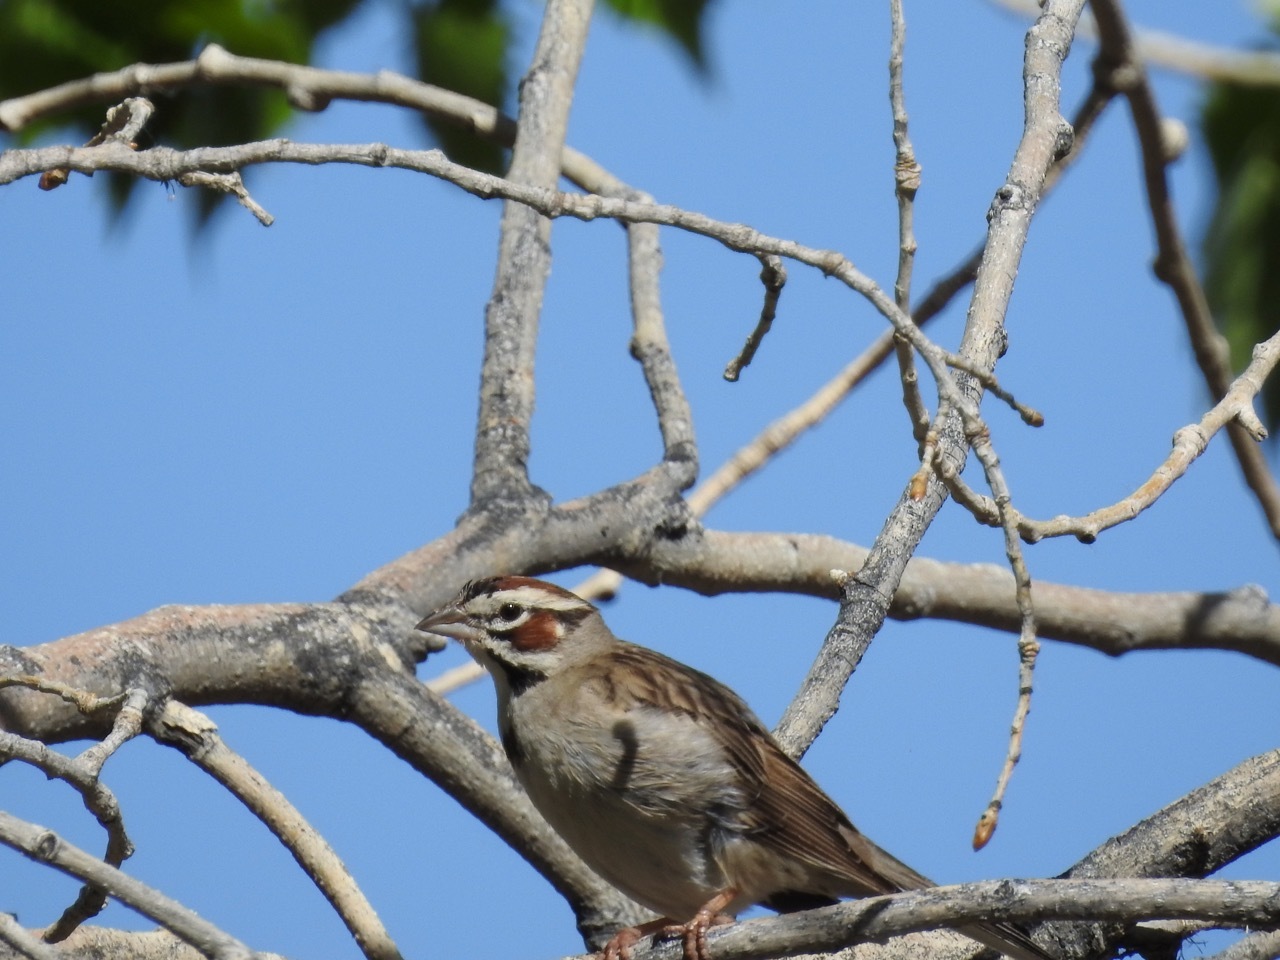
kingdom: Animalia
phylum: Chordata
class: Aves
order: Passeriformes
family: Passerellidae
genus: Chondestes
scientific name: Chondestes grammacus
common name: Lark sparrow
